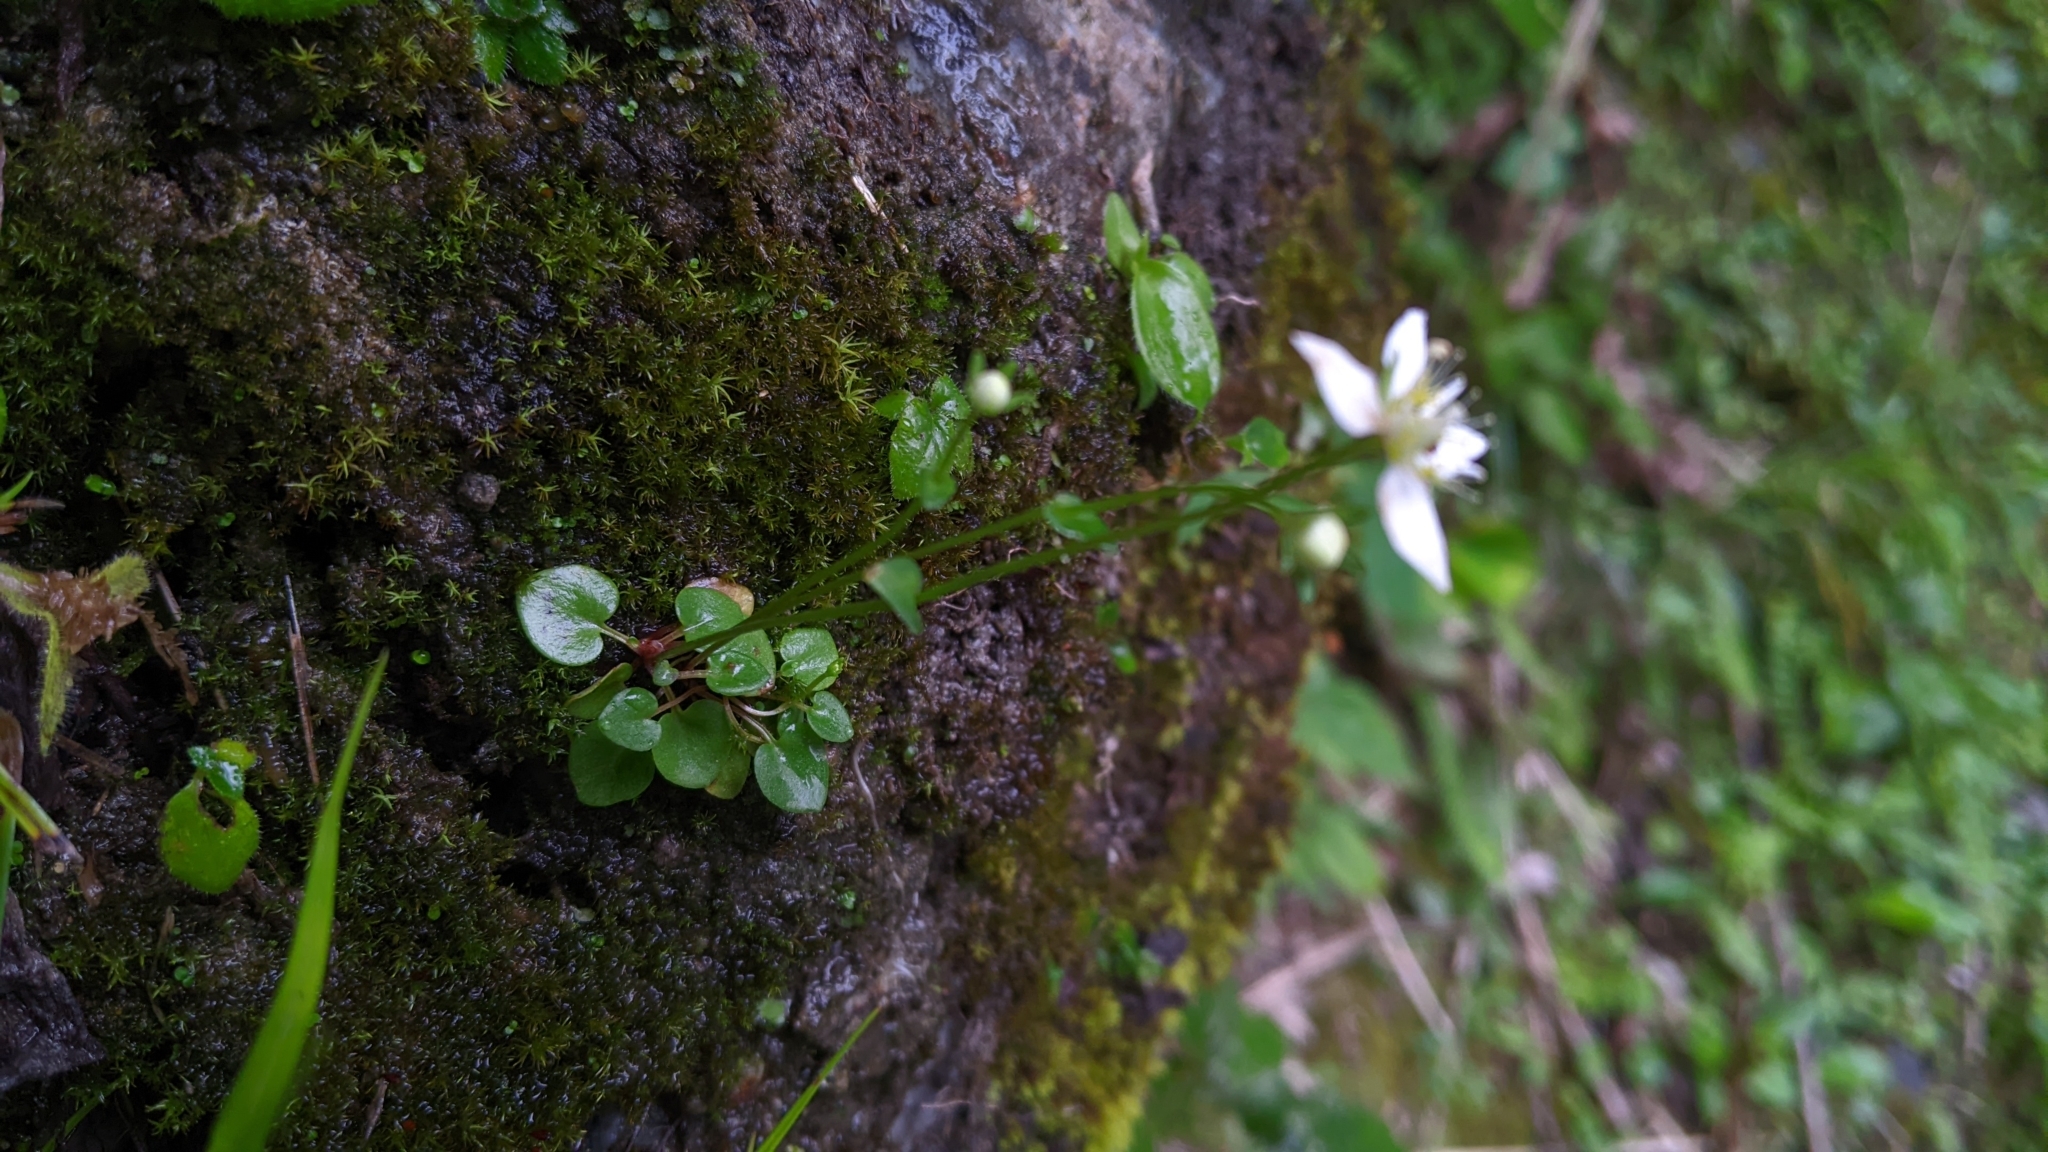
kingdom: Plantae
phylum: Tracheophyta
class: Magnoliopsida
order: Celastrales
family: Parnassiaceae
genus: Parnassia
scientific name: Parnassia palustris
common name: Grass-of-parnassus
